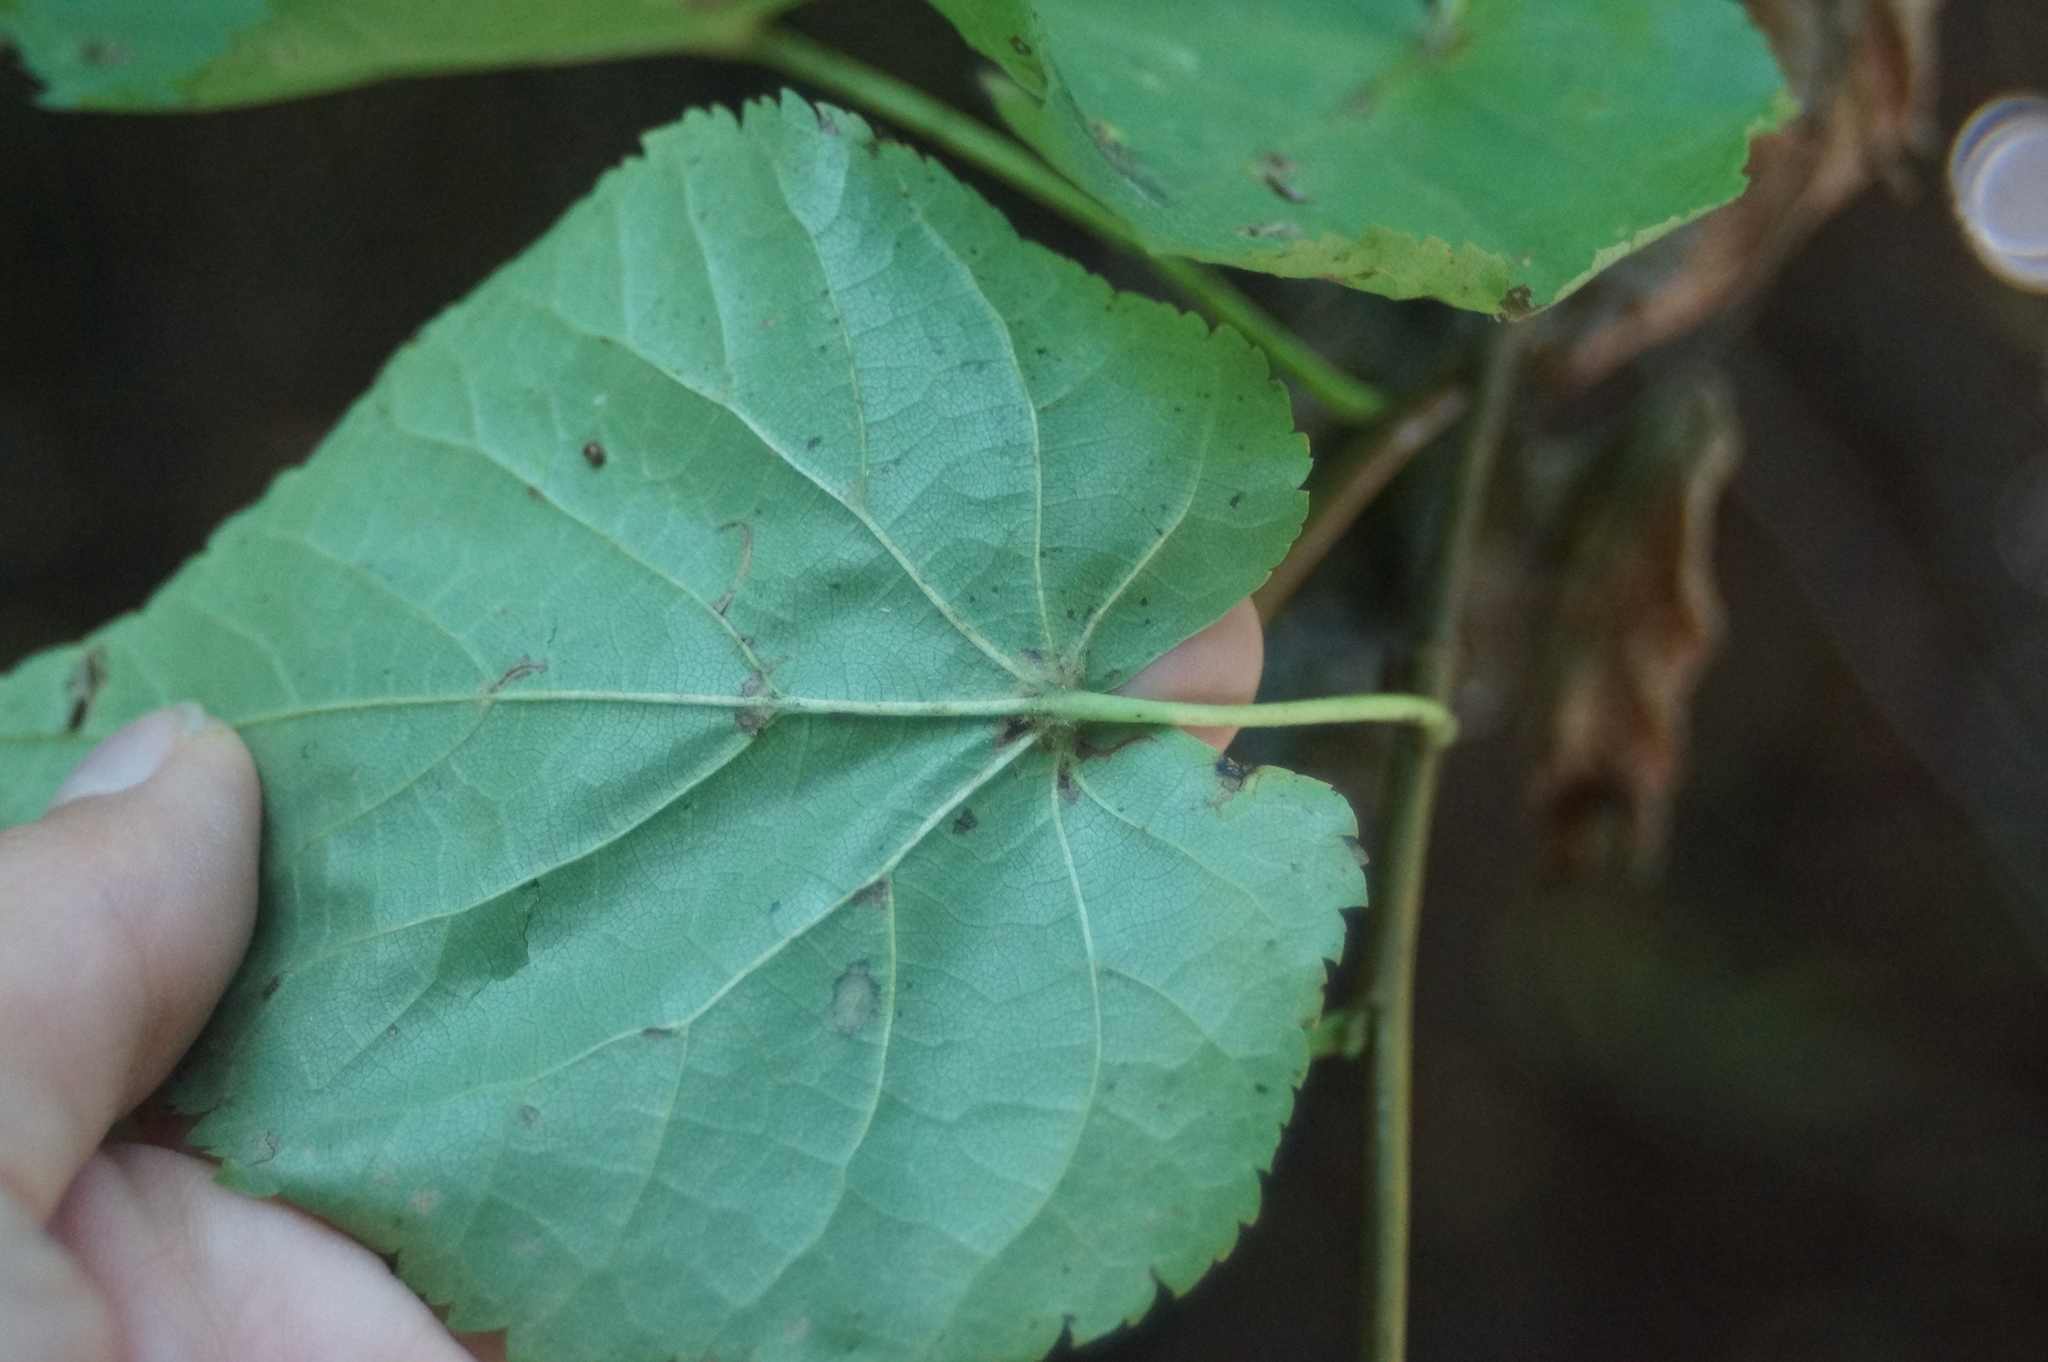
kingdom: Plantae
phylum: Tracheophyta
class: Magnoliopsida
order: Malvales
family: Malvaceae
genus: Tilia
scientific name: Tilia cordata
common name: Small-leaved lime
